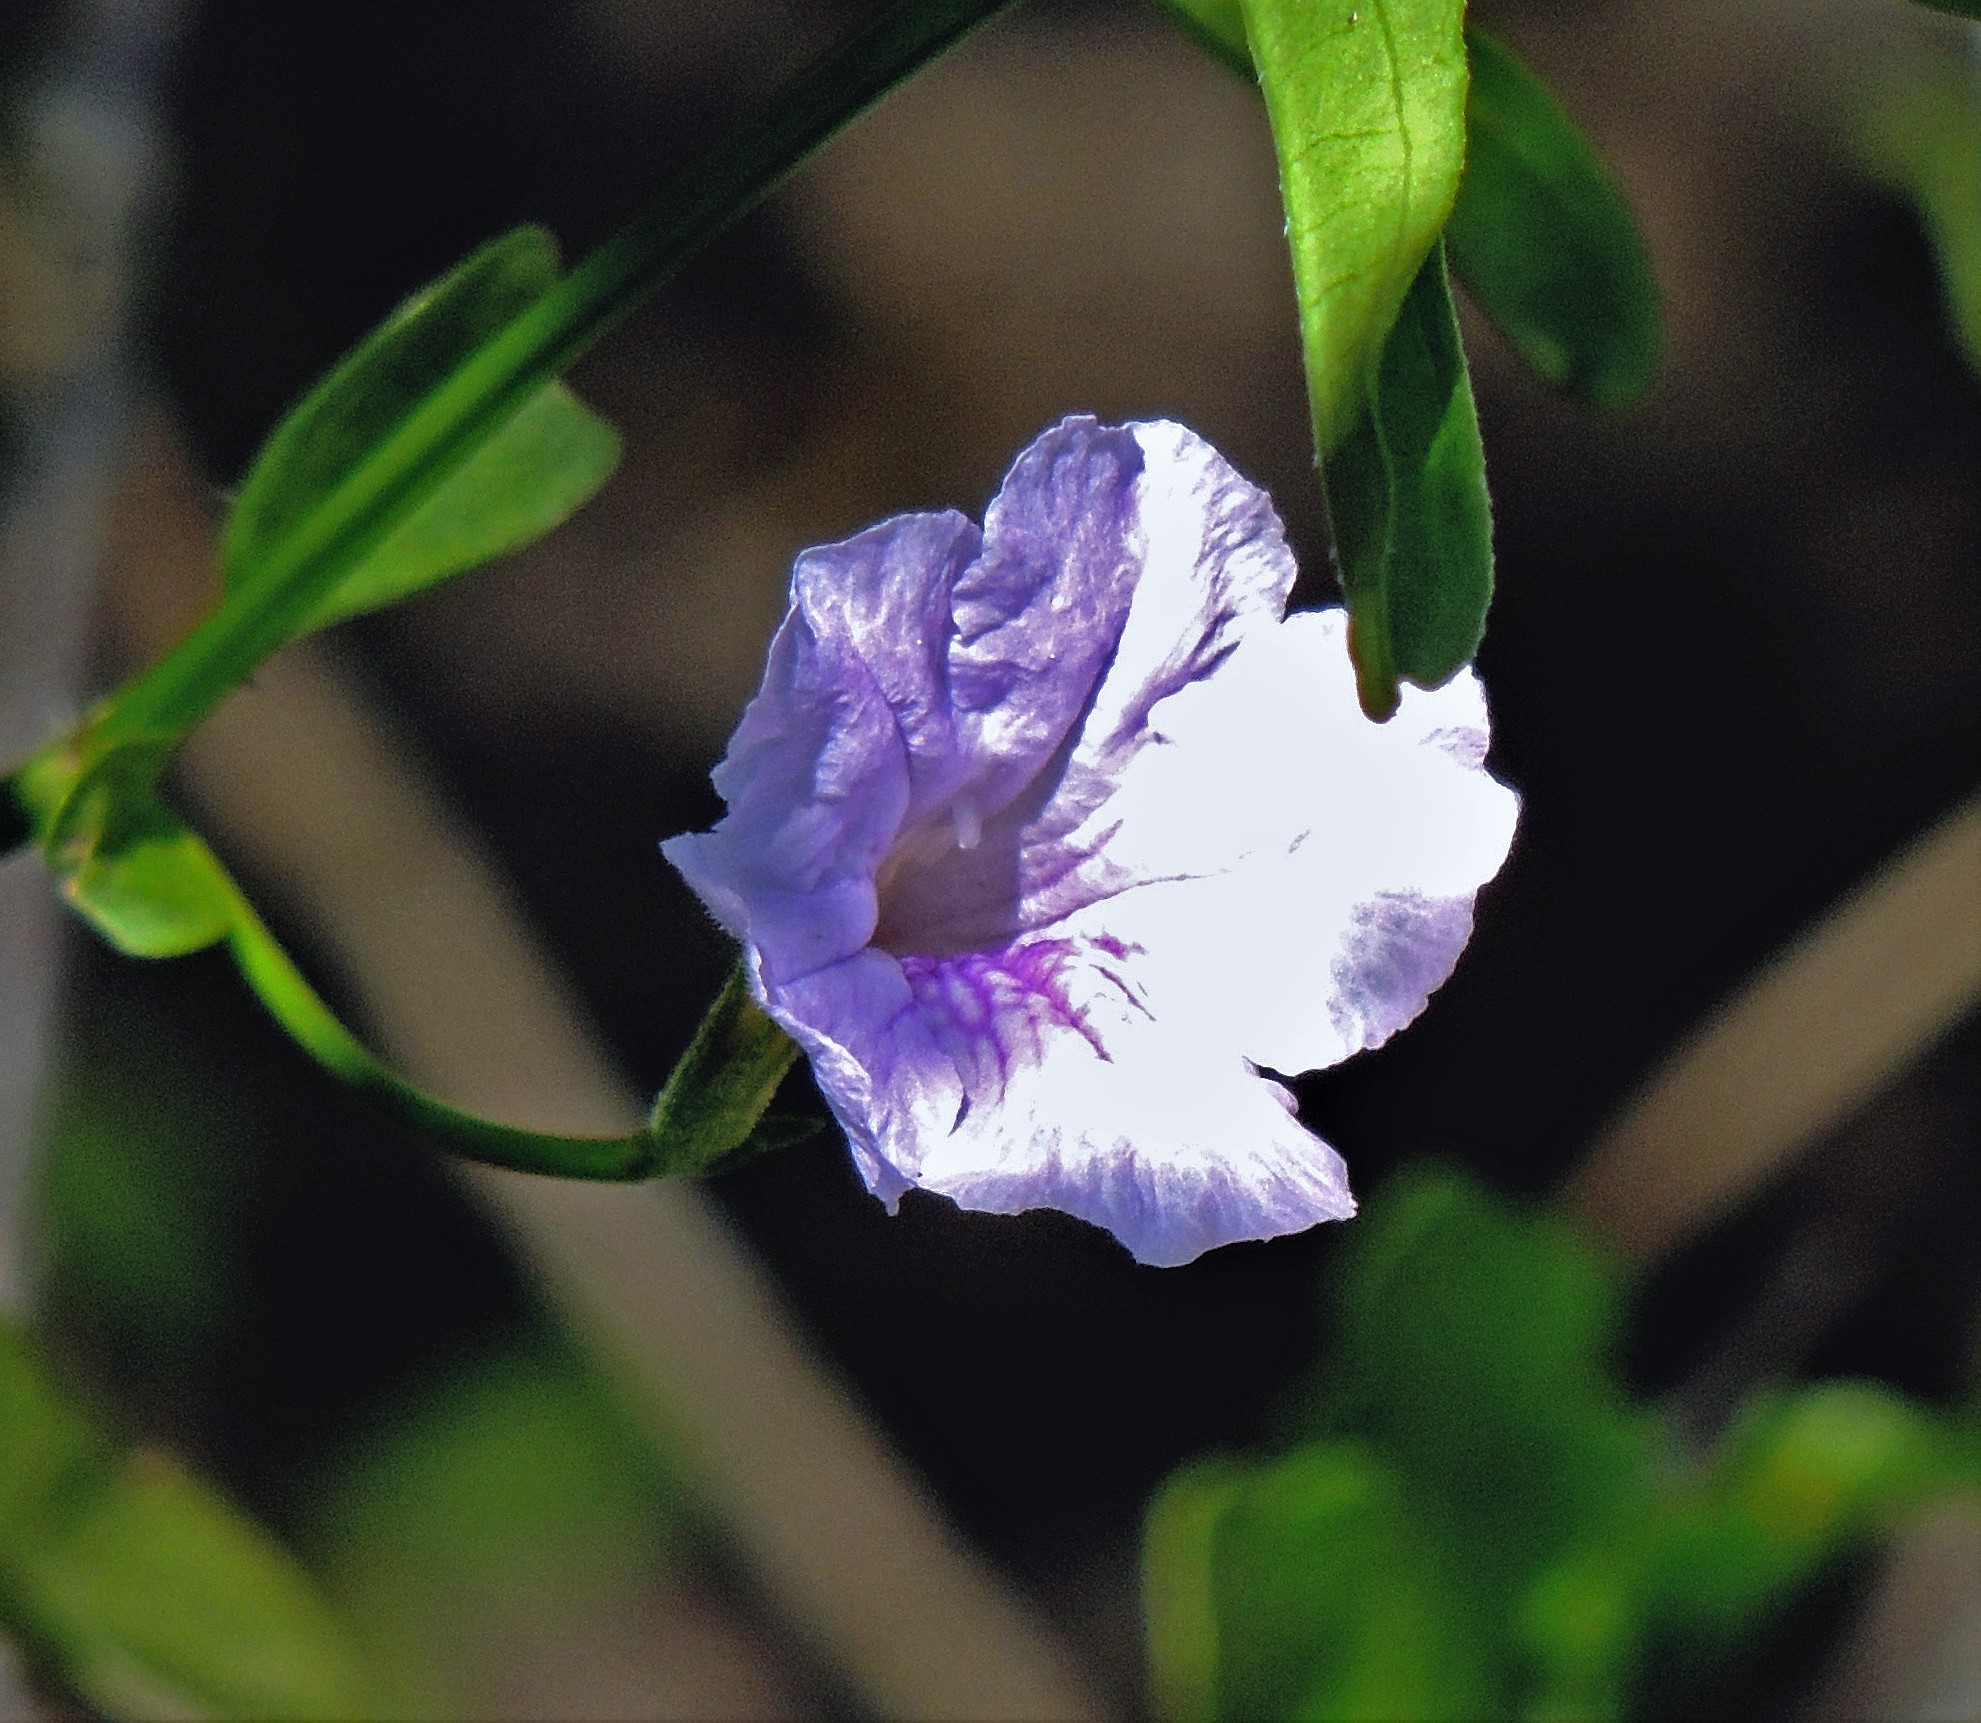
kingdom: Plantae
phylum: Tracheophyta
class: Magnoliopsida
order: Lamiales
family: Acanthaceae
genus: Ruellia
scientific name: Ruellia simplex
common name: Softseed wild petunia
